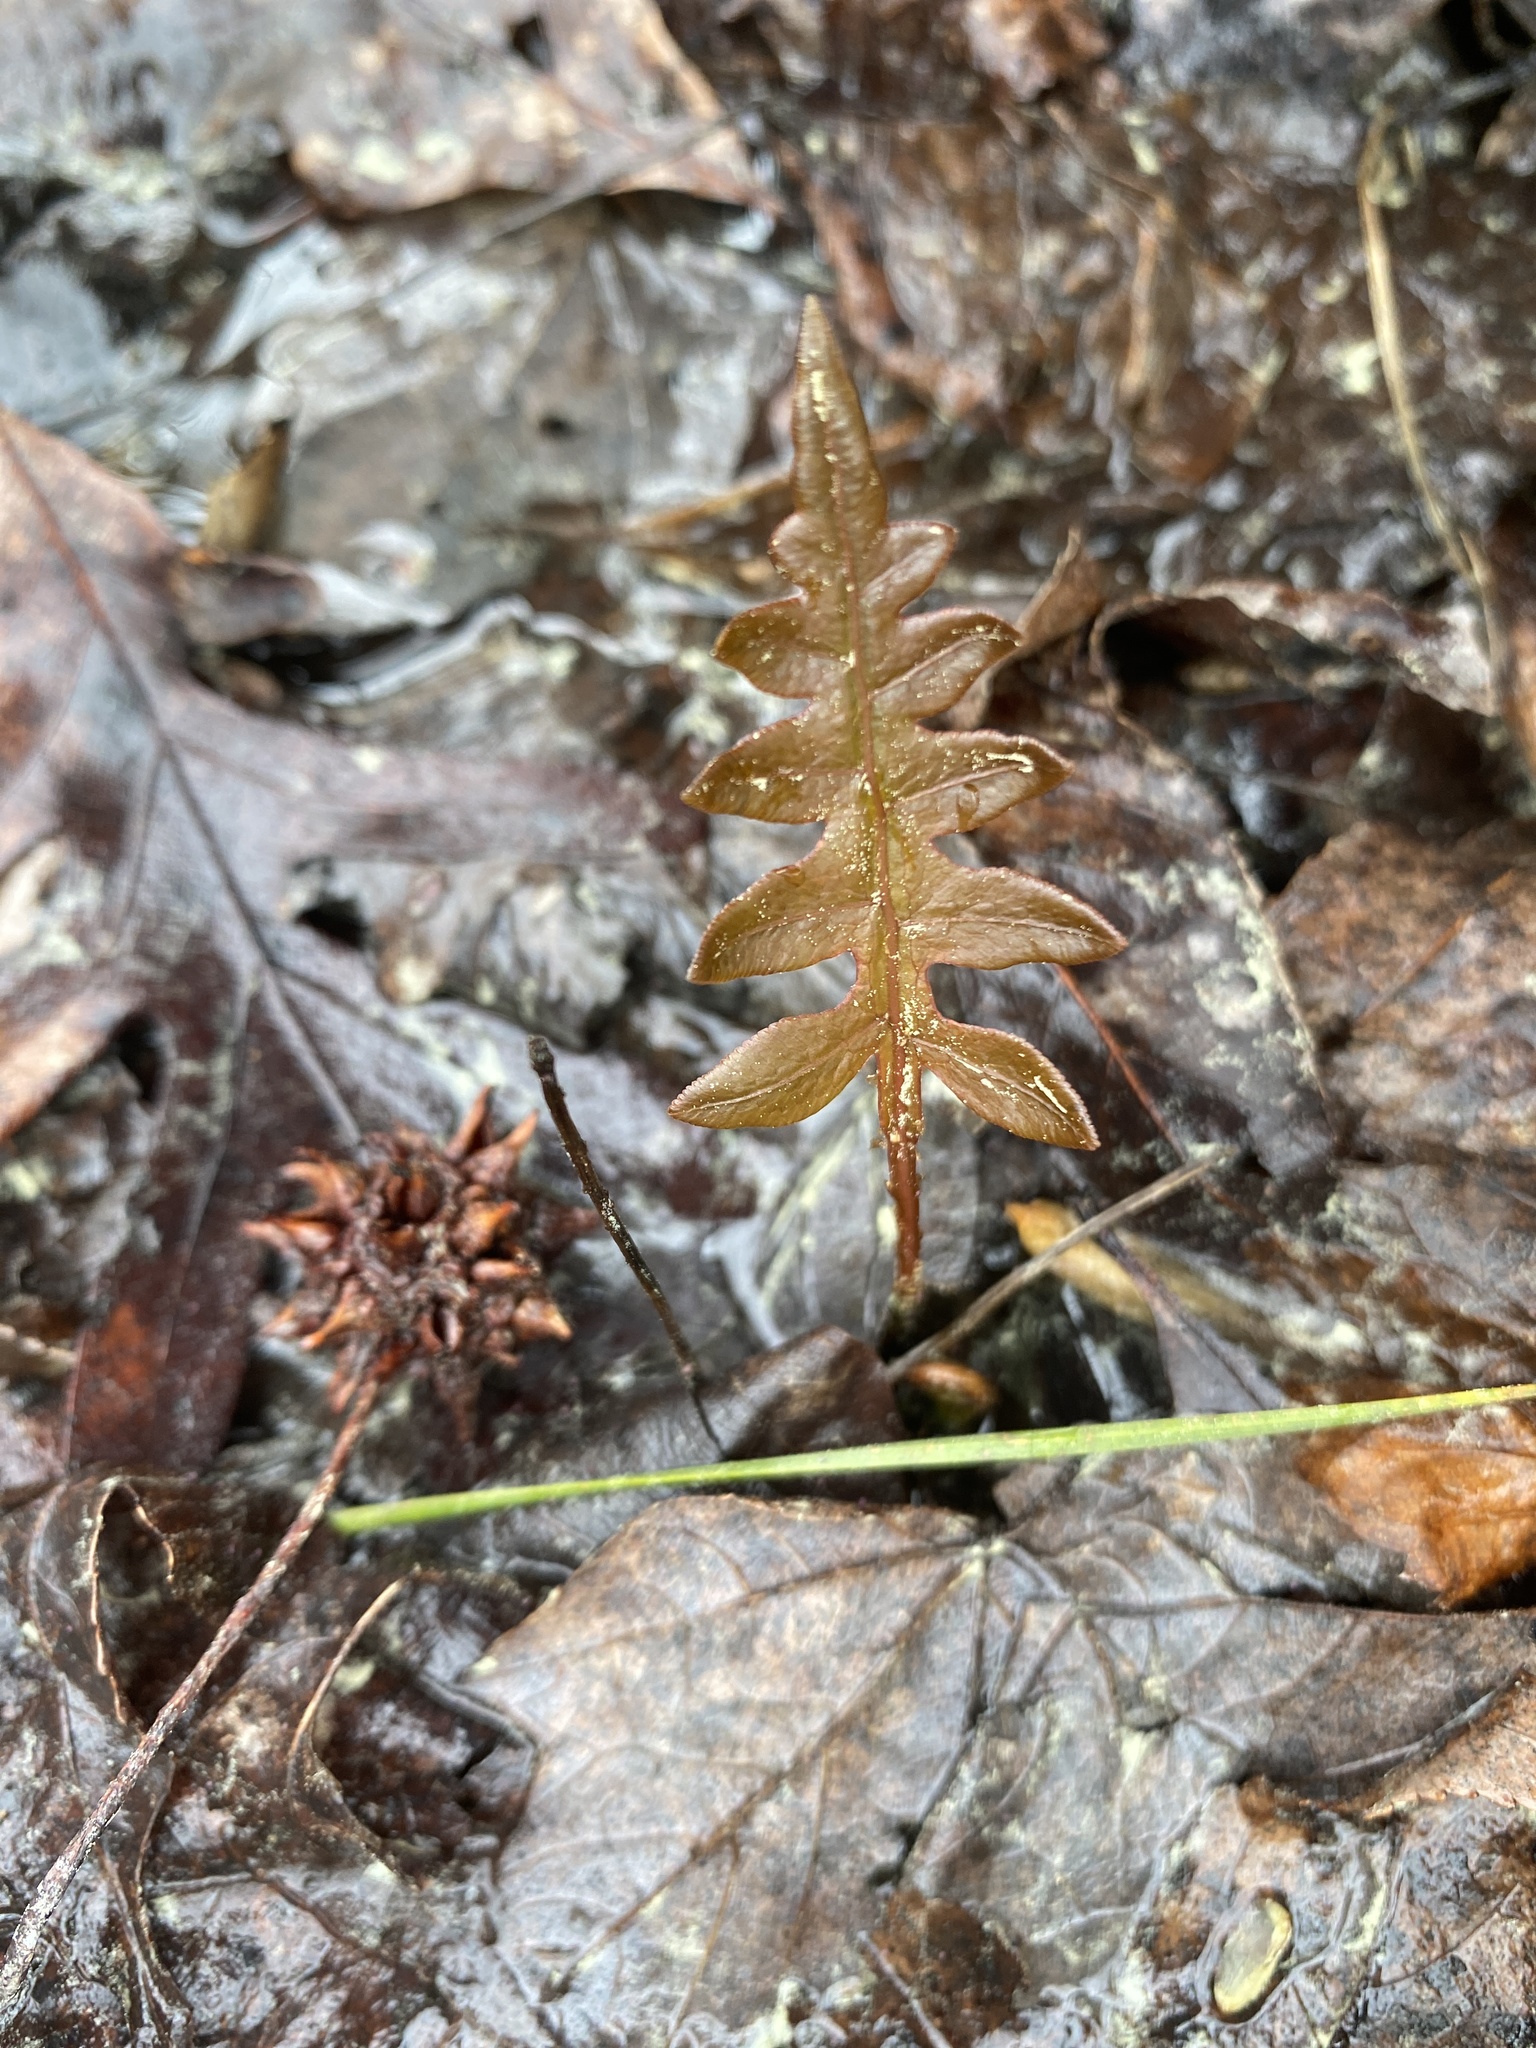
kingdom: Plantae
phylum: Tracheophyta
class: Polypodiopsida
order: Polypodiales
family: Blechnaceae
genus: Lorinseria
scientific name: Lorinseria areolata
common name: Dwarf chain fern
